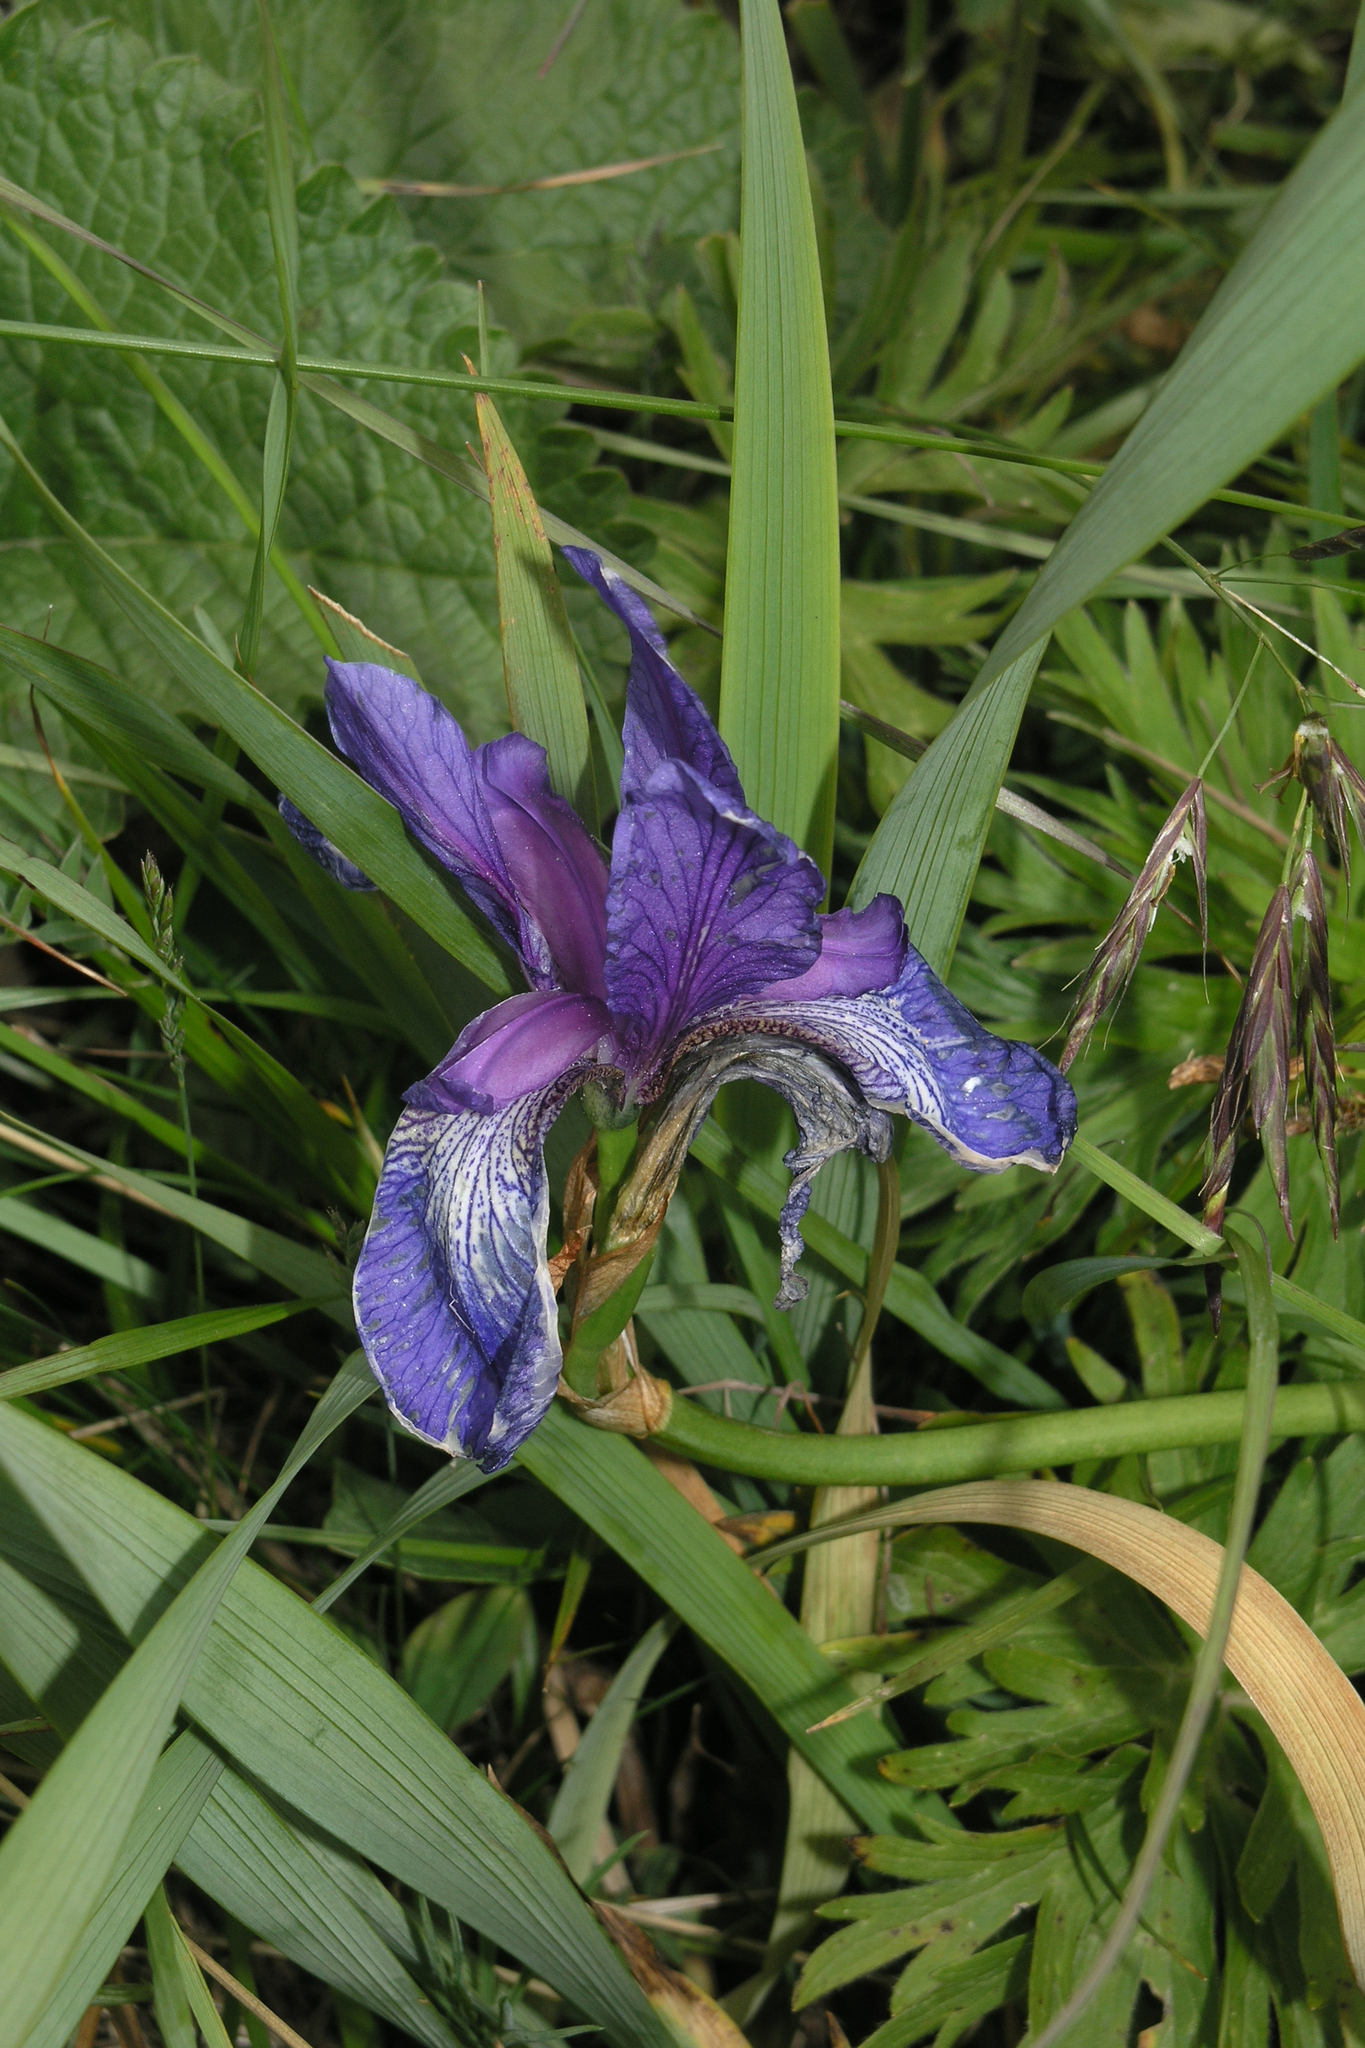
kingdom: Plantae
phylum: Tracheophyta
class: Liliopsida
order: Asparagales
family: Iridaceae
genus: Iris
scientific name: Iris sibirica
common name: Siberian iris
